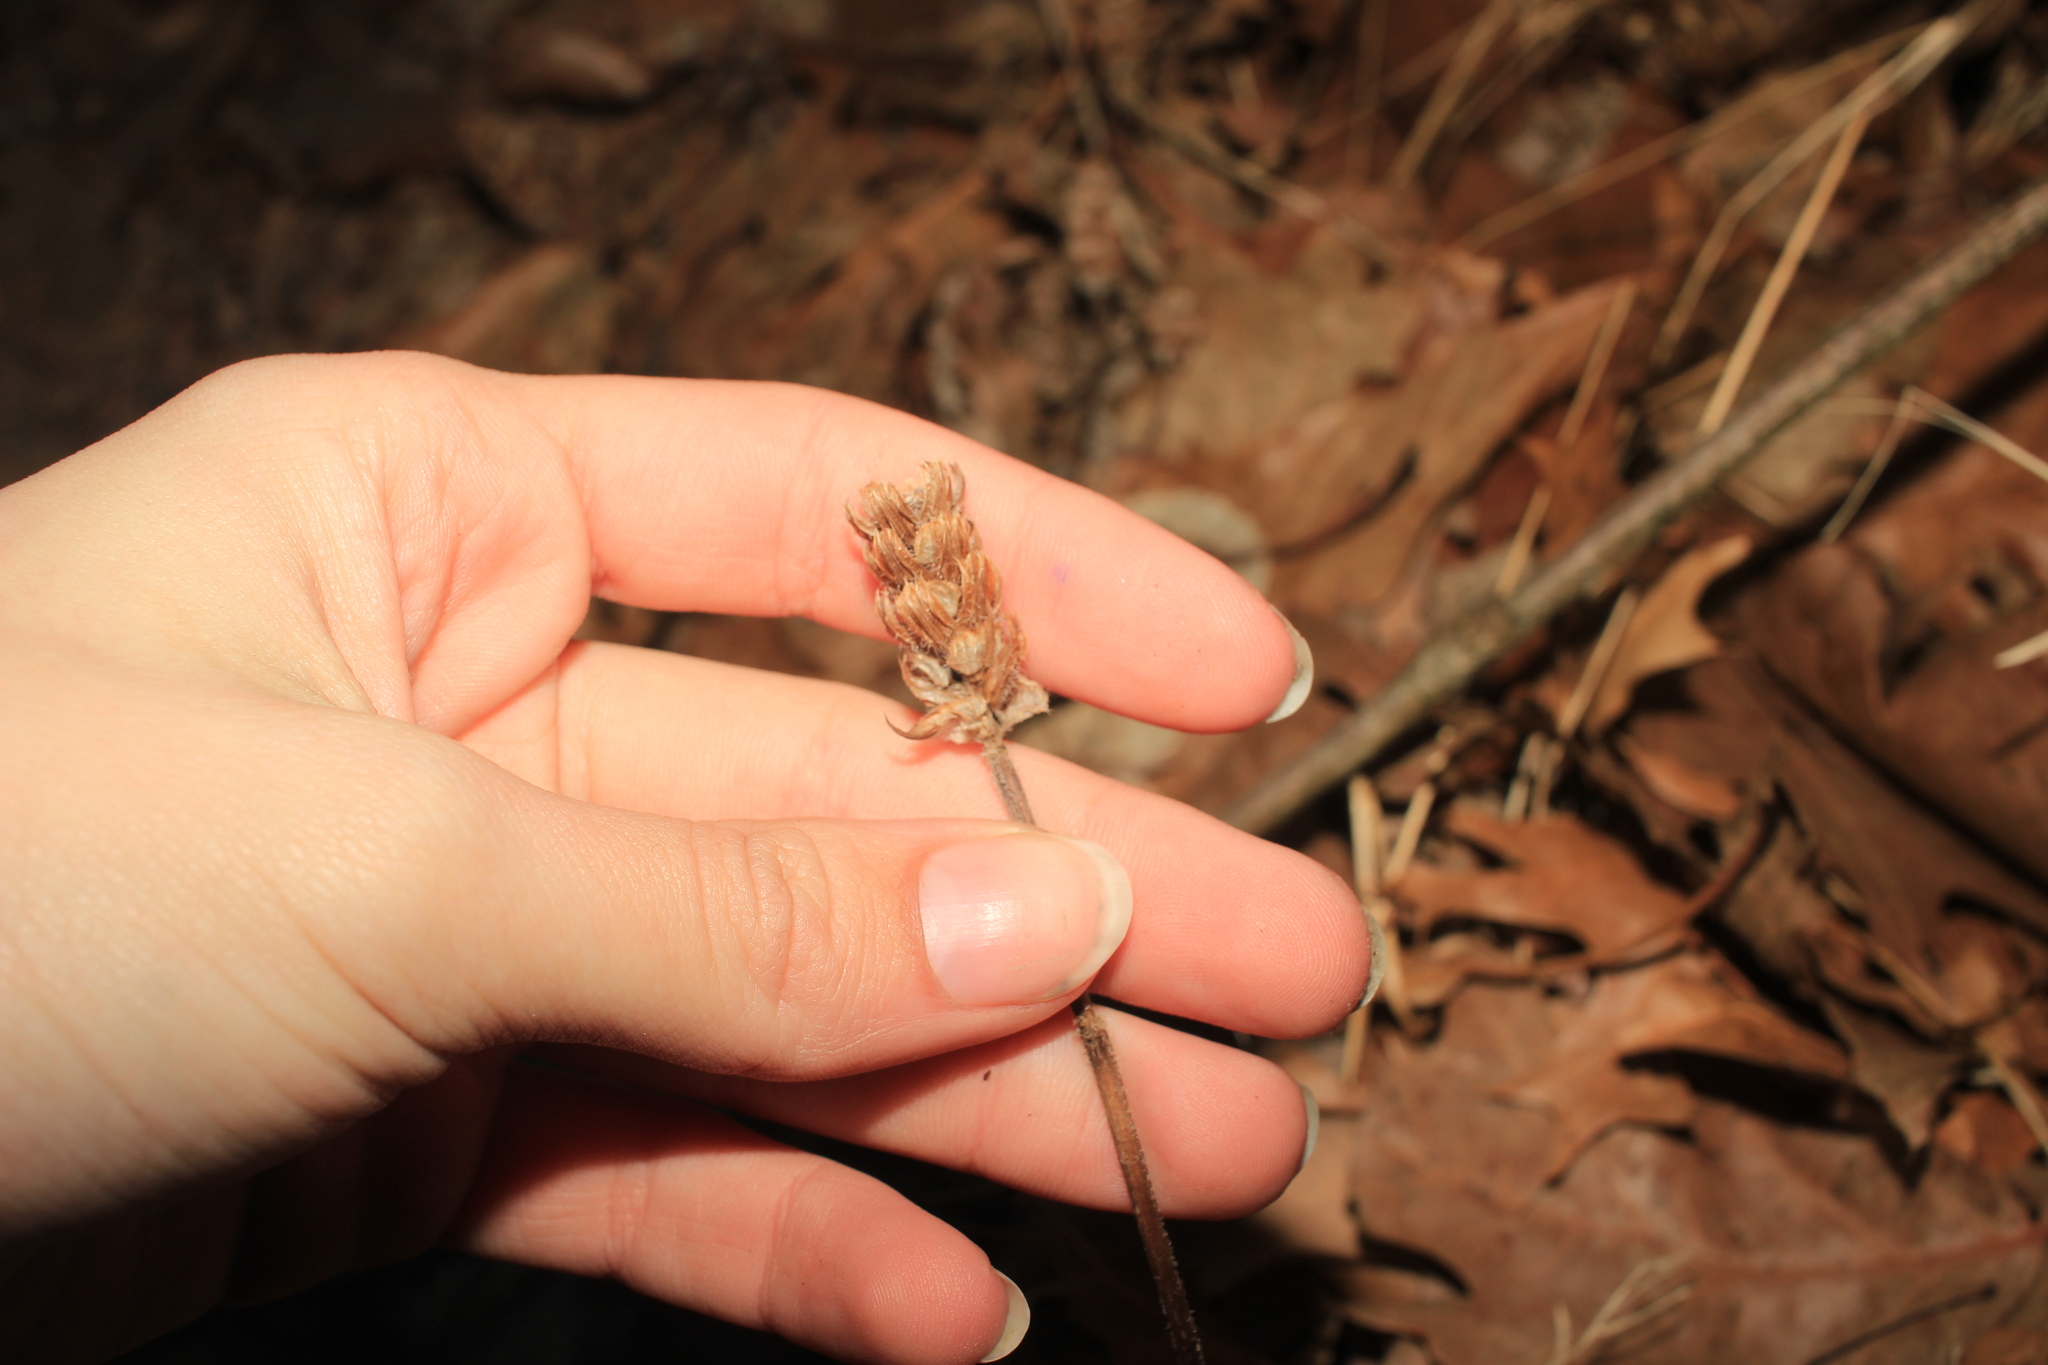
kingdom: Plantae
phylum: Tracheophyta
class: Magnoliopsida
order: Lamiales
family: Lamiaceae
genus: Prunella
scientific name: Prunella vulgaris
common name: Heal-all
